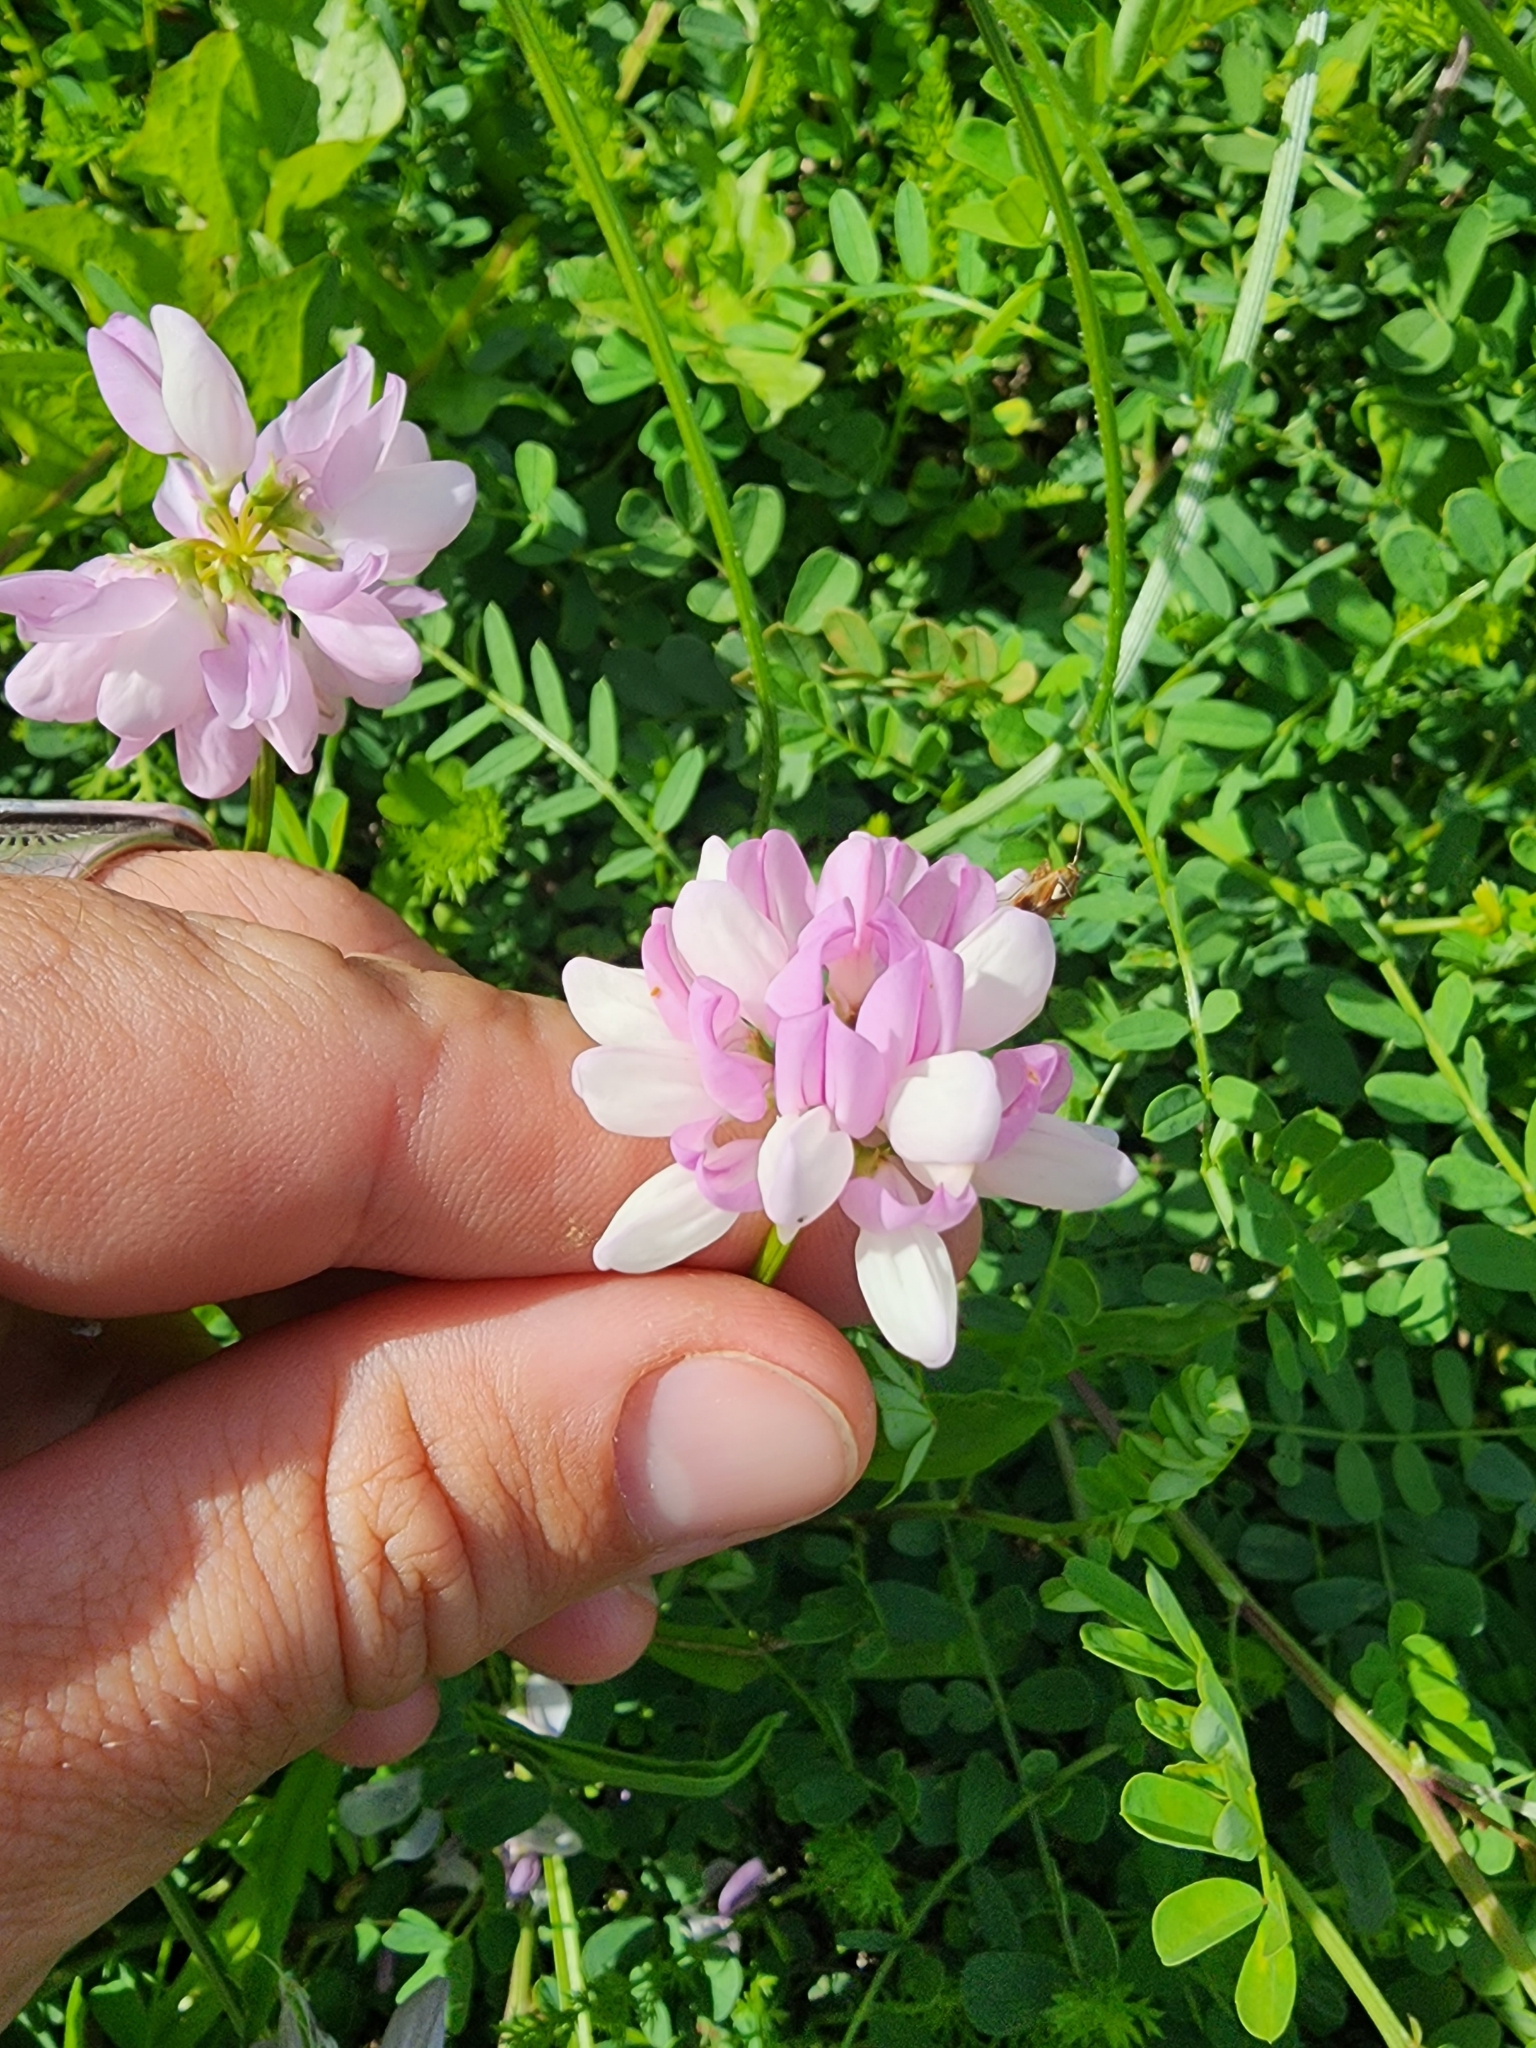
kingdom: Plantae
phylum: Tracheophyta
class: Magnoliopsida
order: Fabales
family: Fabaceae
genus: Coronilla
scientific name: Coronilla varia
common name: Crownvetch
